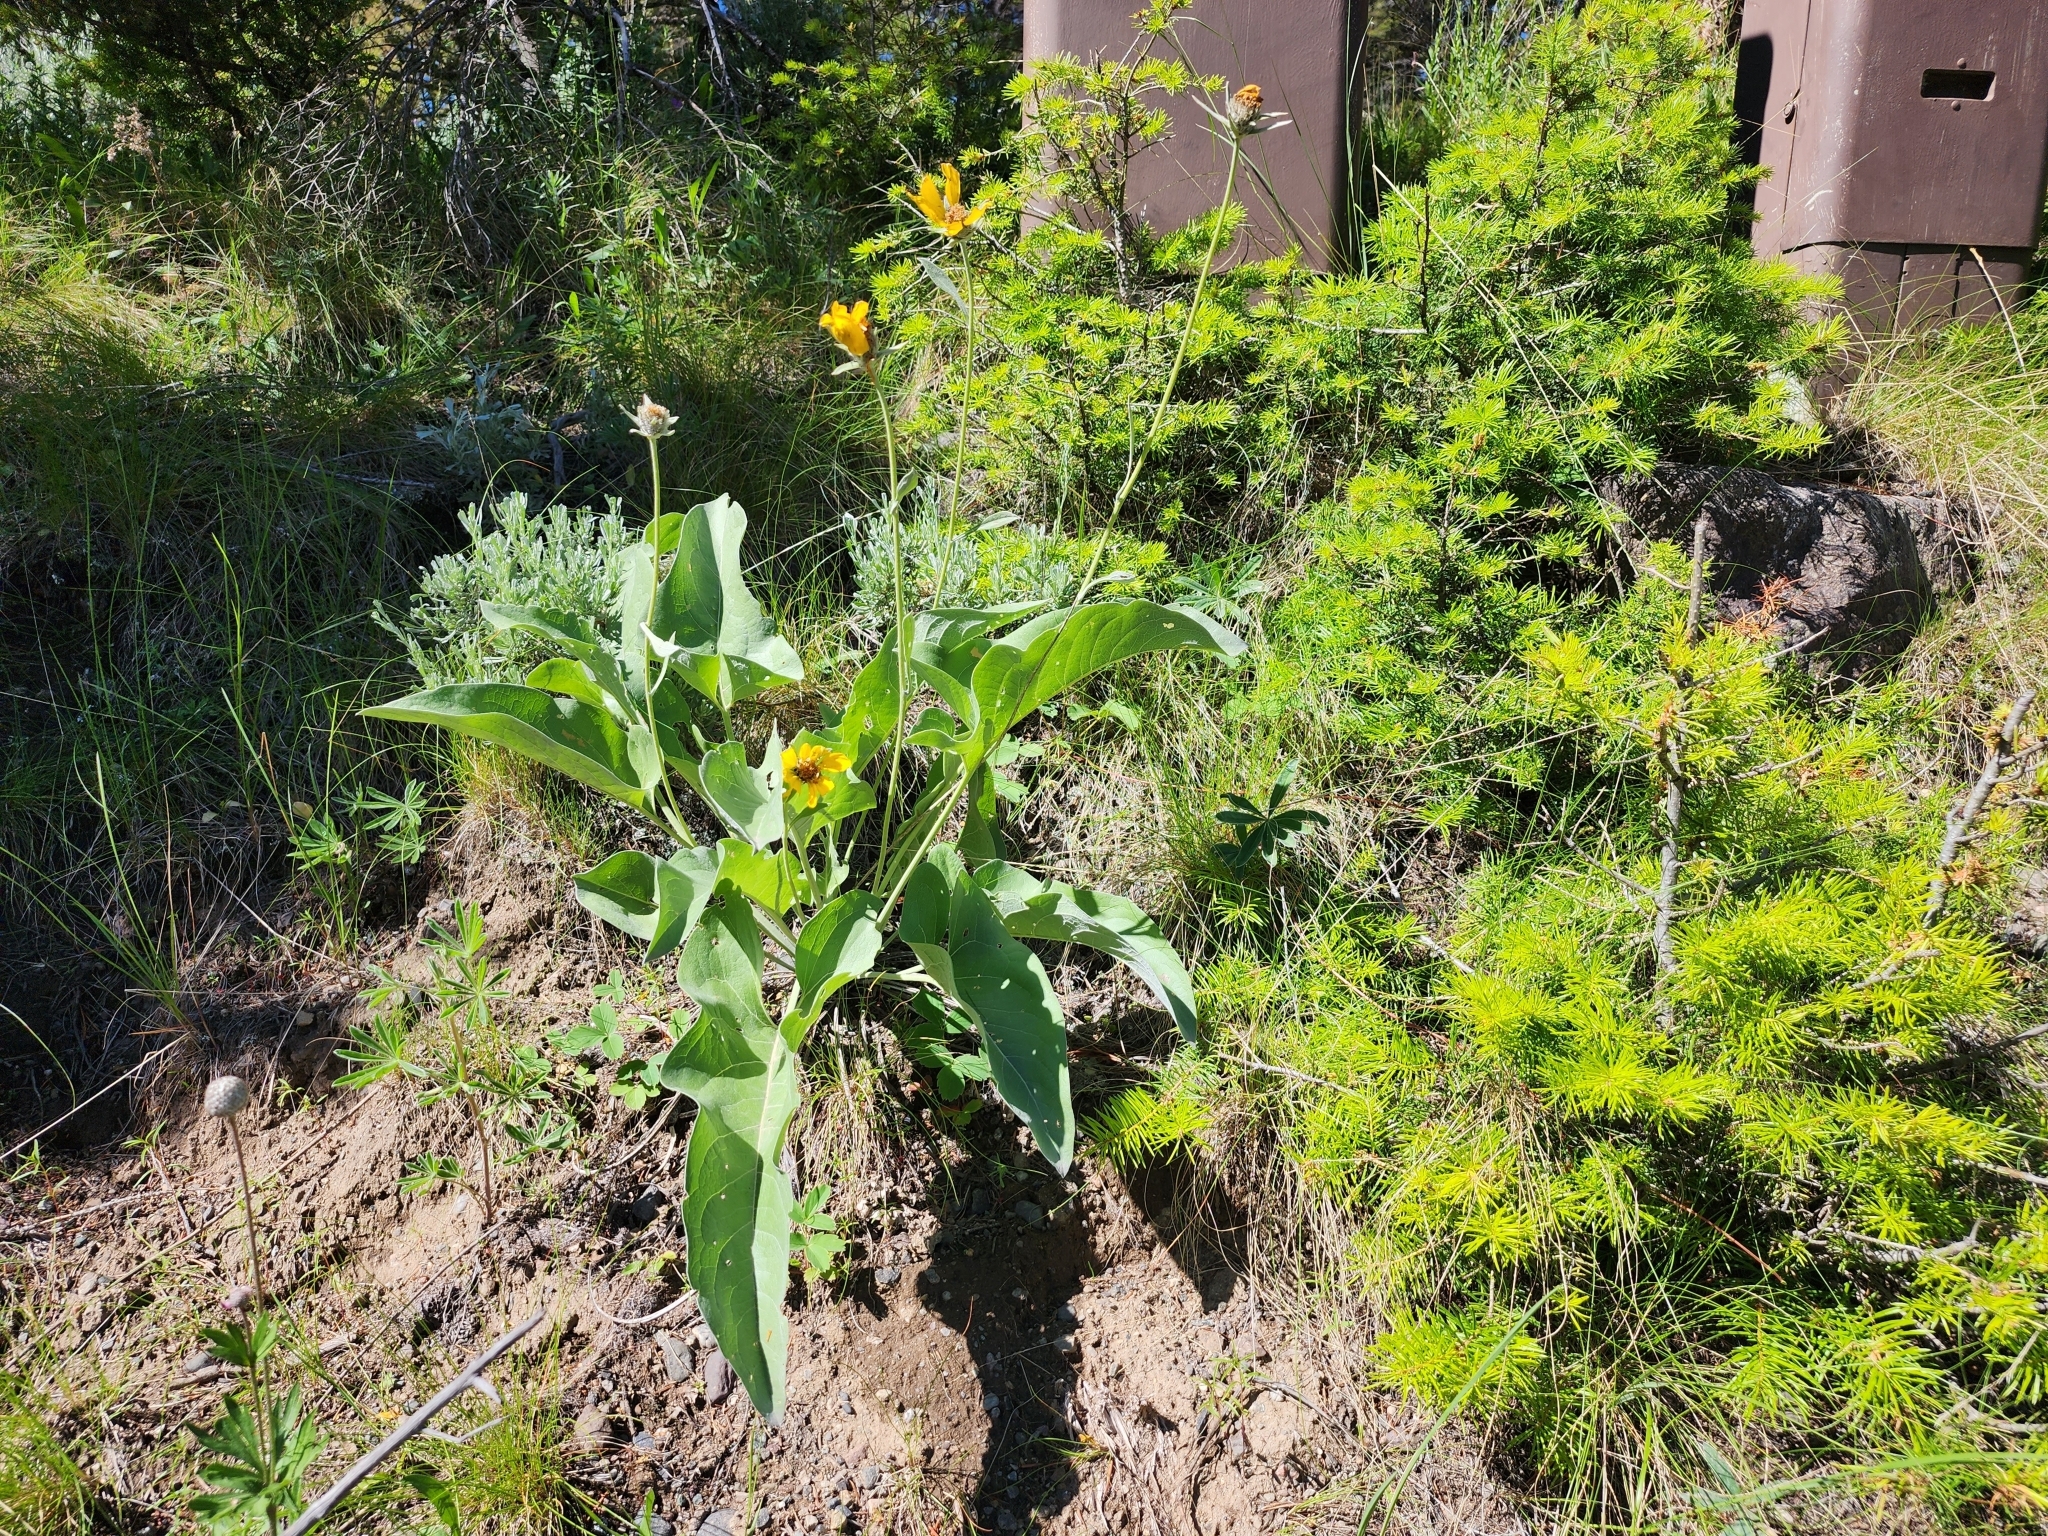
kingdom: Plantae
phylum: Tracheophyta
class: Magnoliopsida
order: Asterales
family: Asteraceae
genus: Wyethia
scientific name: Wyethia sagittata
